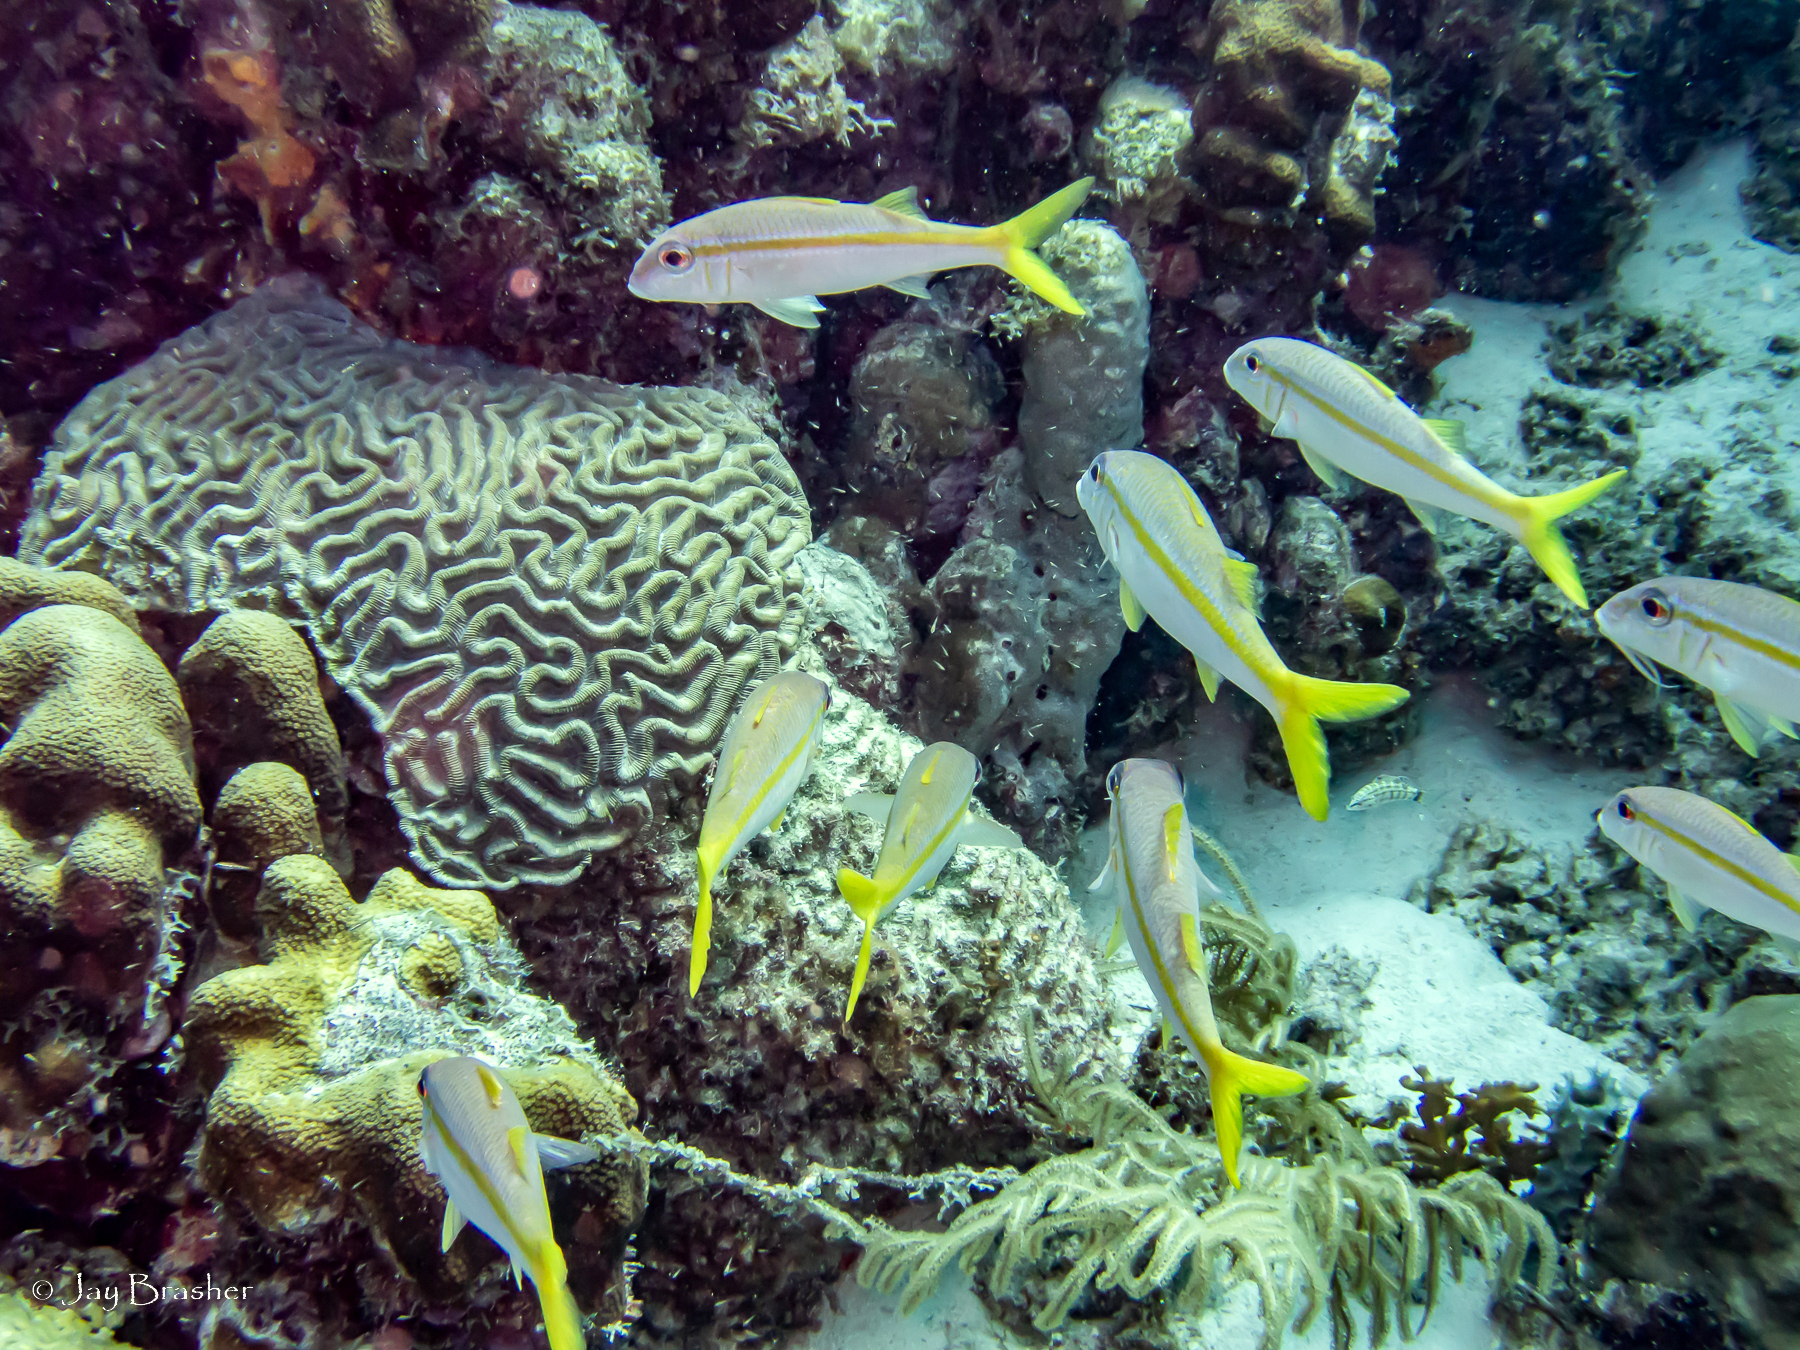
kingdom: Animalia
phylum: Cnidaria
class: Anthozoa
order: Scleractinia
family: Faviidae
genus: Colpophyllia
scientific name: Colpophyllia natans
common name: Boulder brain coral
